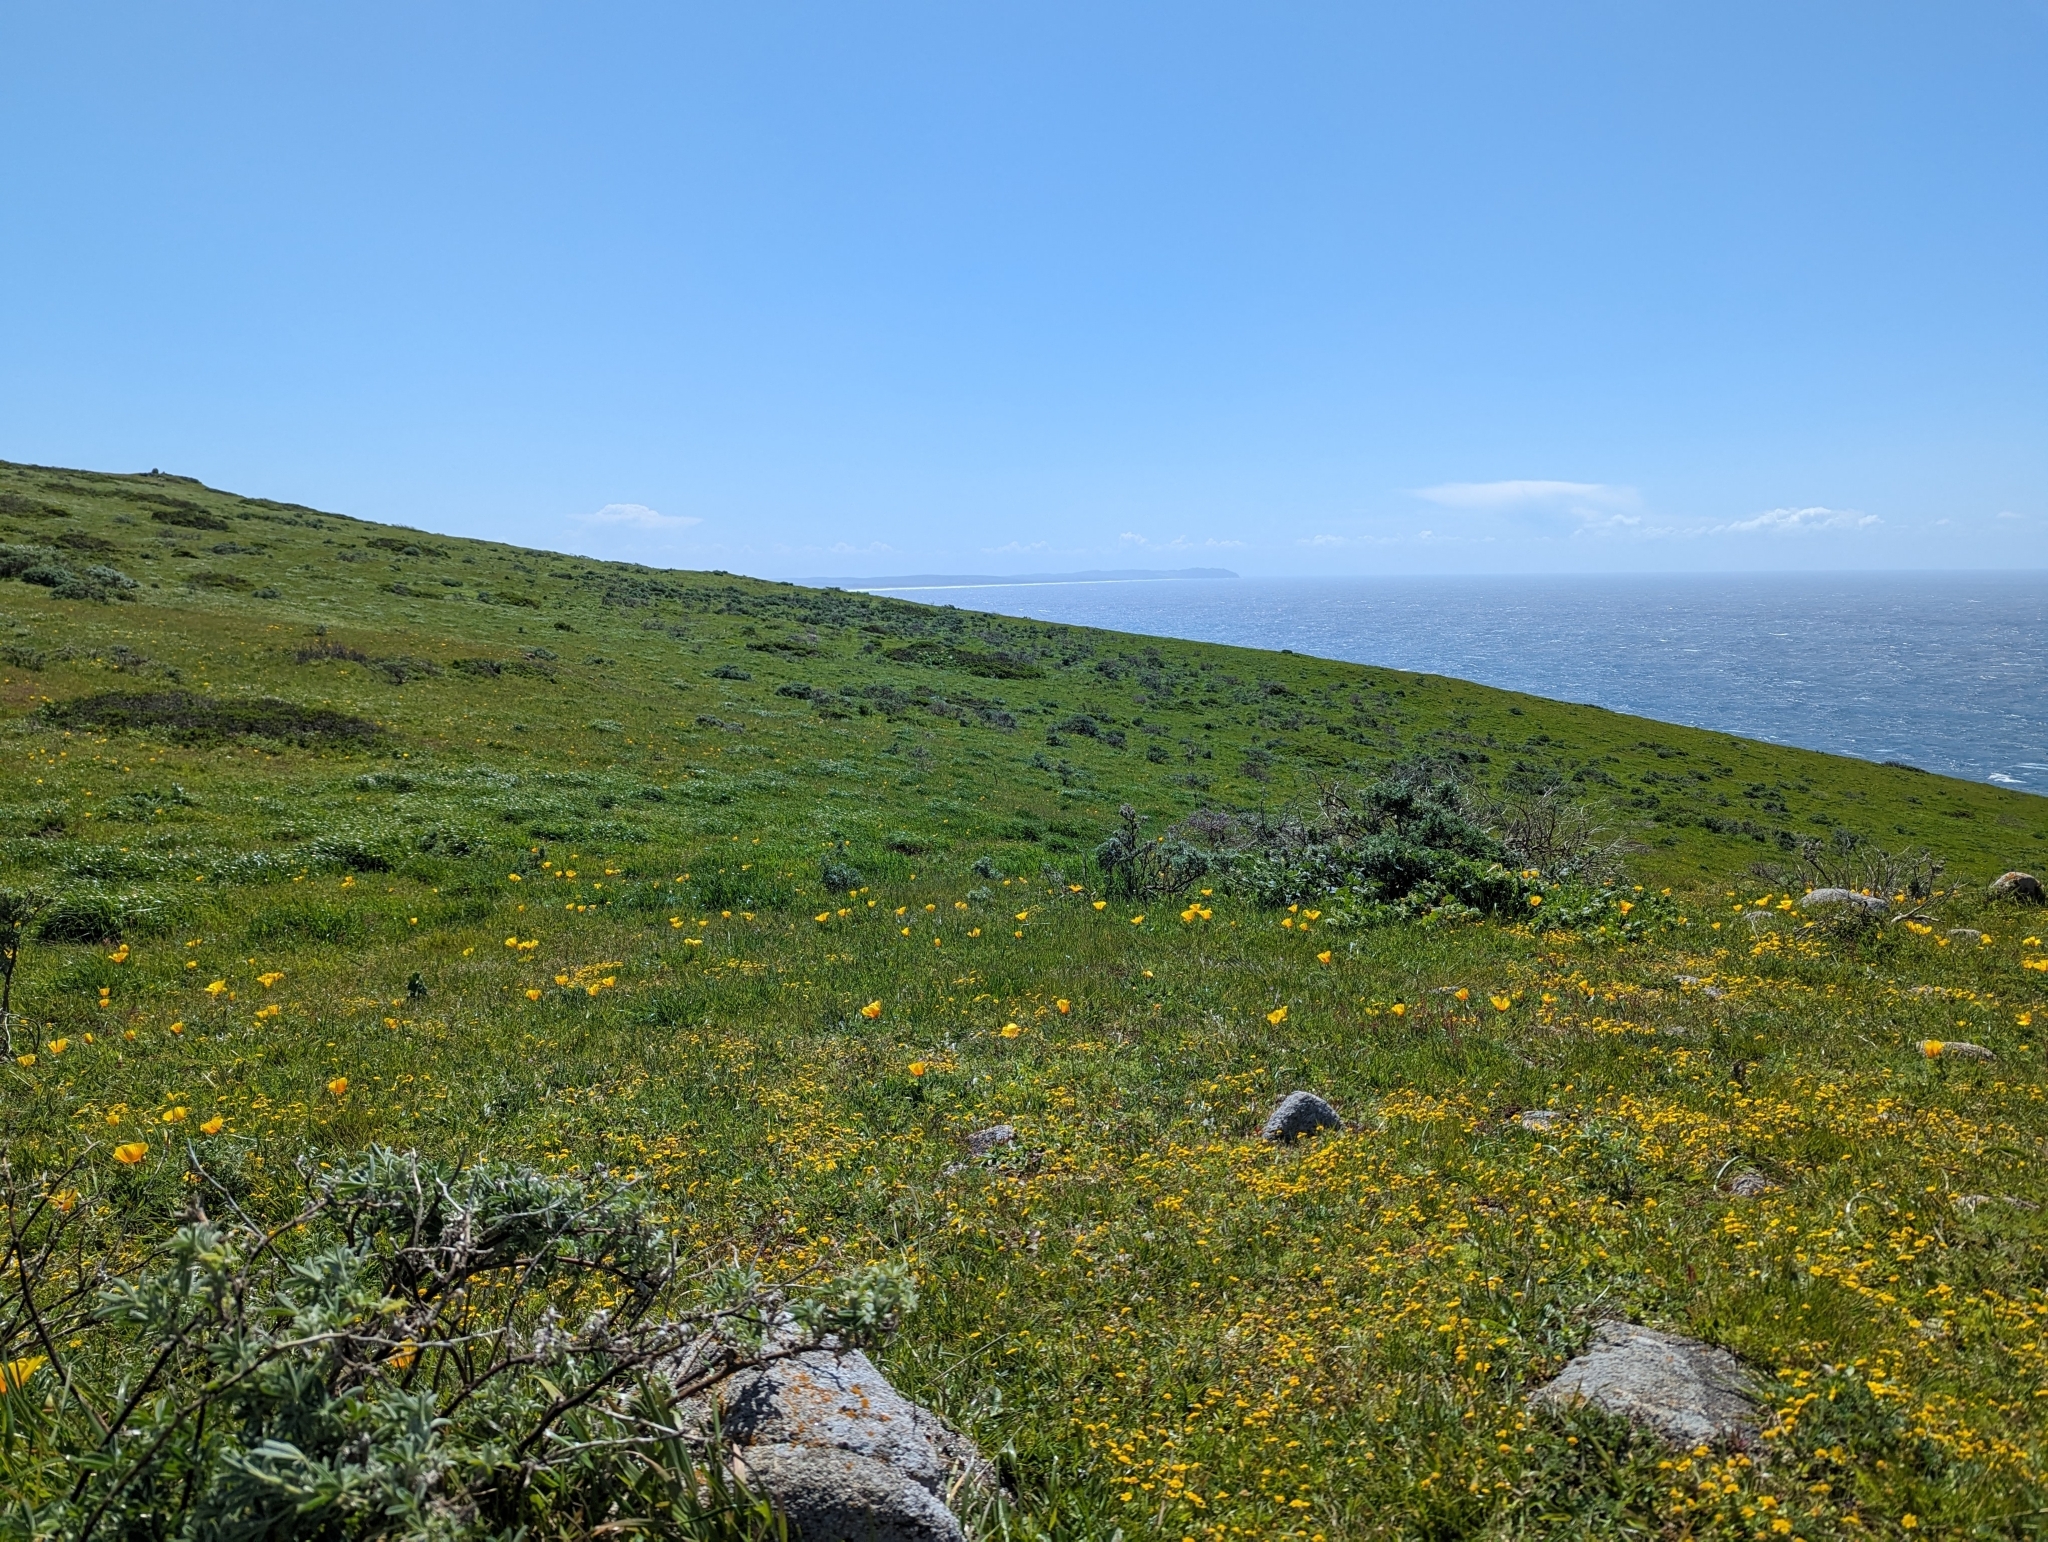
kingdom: Plantae
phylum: Tracheophyta
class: Magnoliopsida
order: Ranunculales
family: Papaveraceae
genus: Eschscholzia
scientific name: Eschscholzia californica
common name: California poppy
